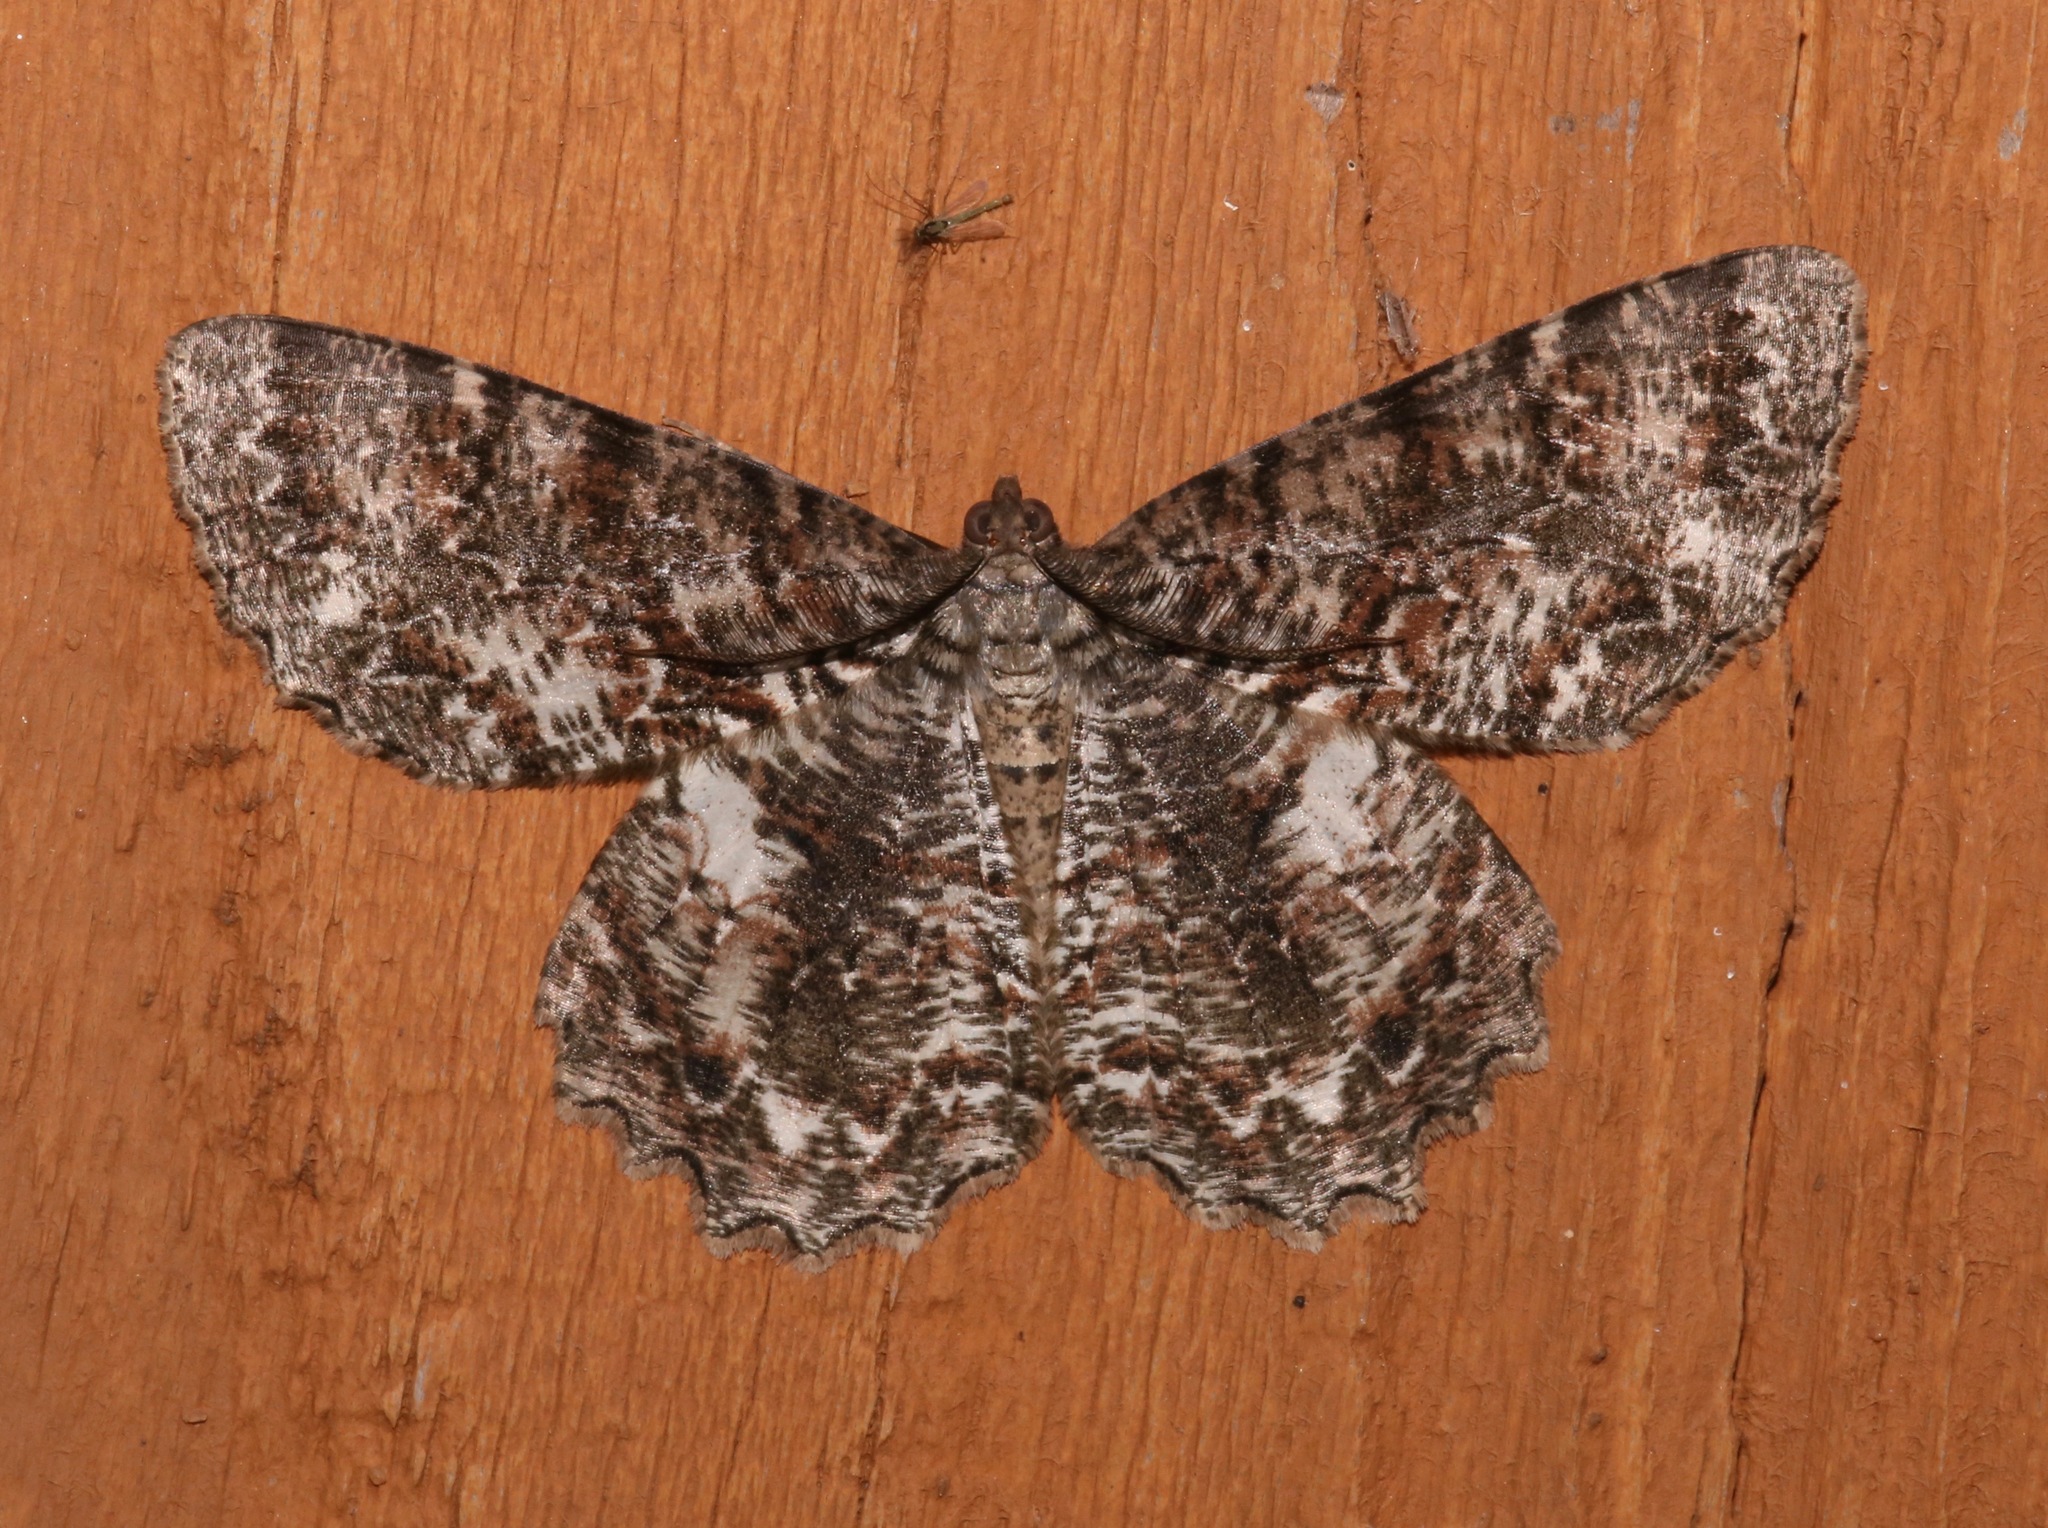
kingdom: Animalia
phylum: Arthropoda
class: Insecta
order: Lepidoptera
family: Geometridae
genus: Epimecis
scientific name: Epimecis hortaria
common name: Tulip-tree beauty
